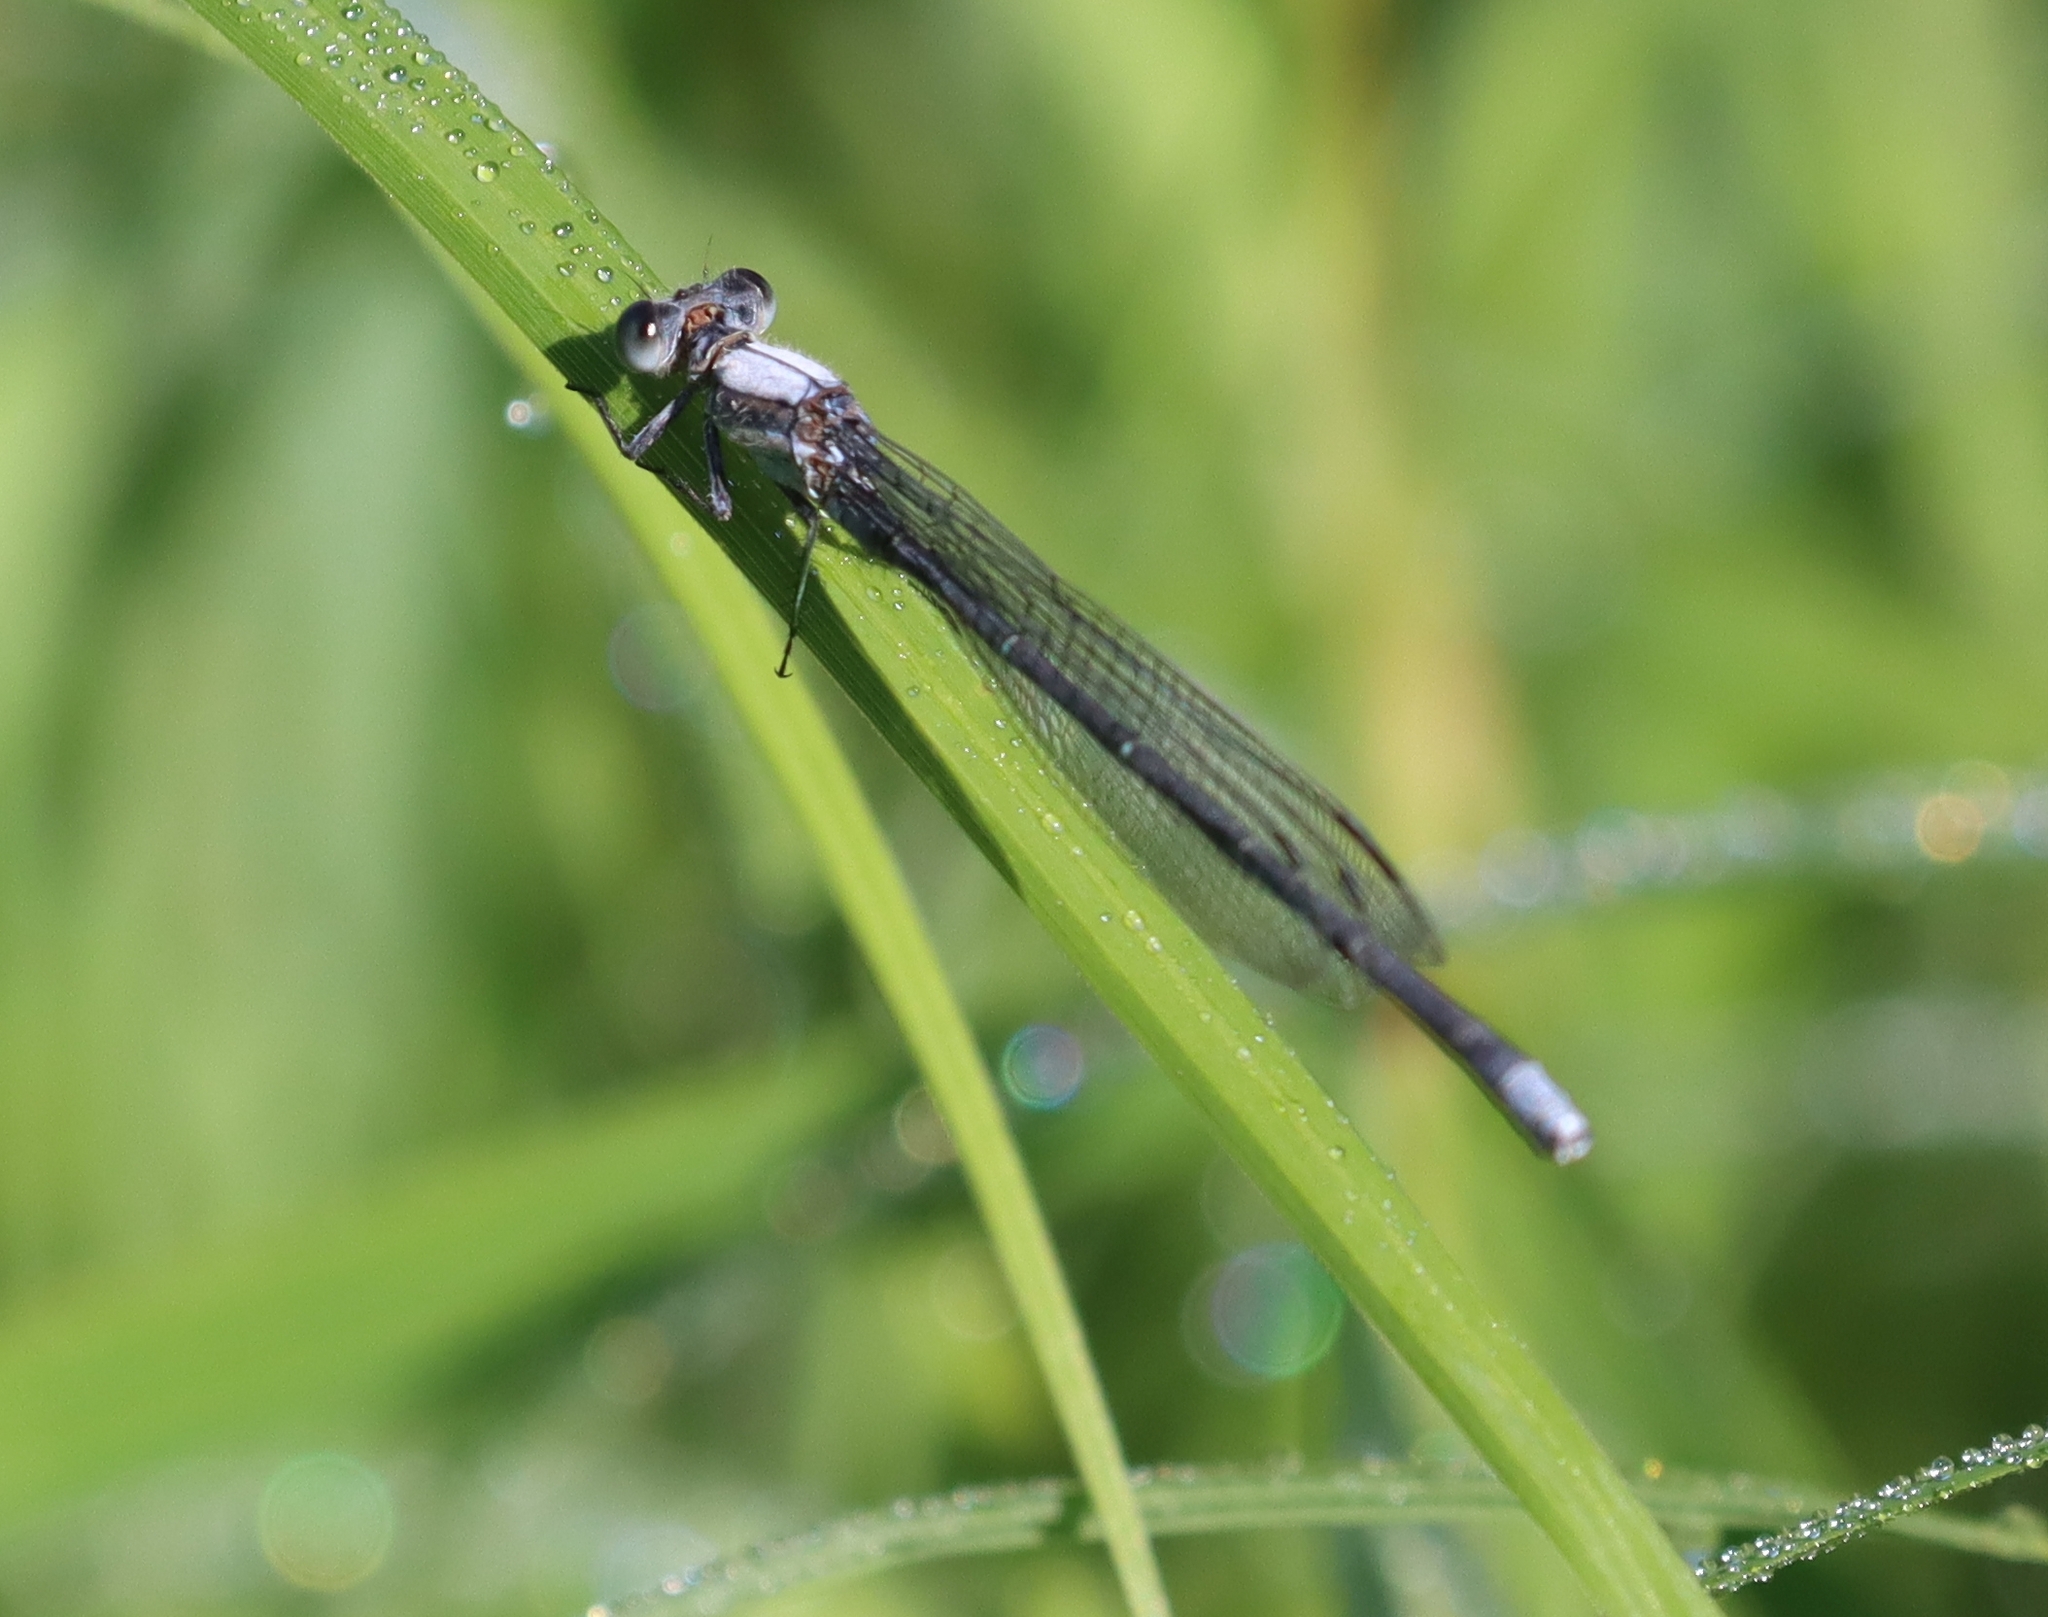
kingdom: Animalia
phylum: Arthropoda
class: Insecta
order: Odonata
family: Coenagrionidae
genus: Argia
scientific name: Argia moesta
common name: Powdered dancer
